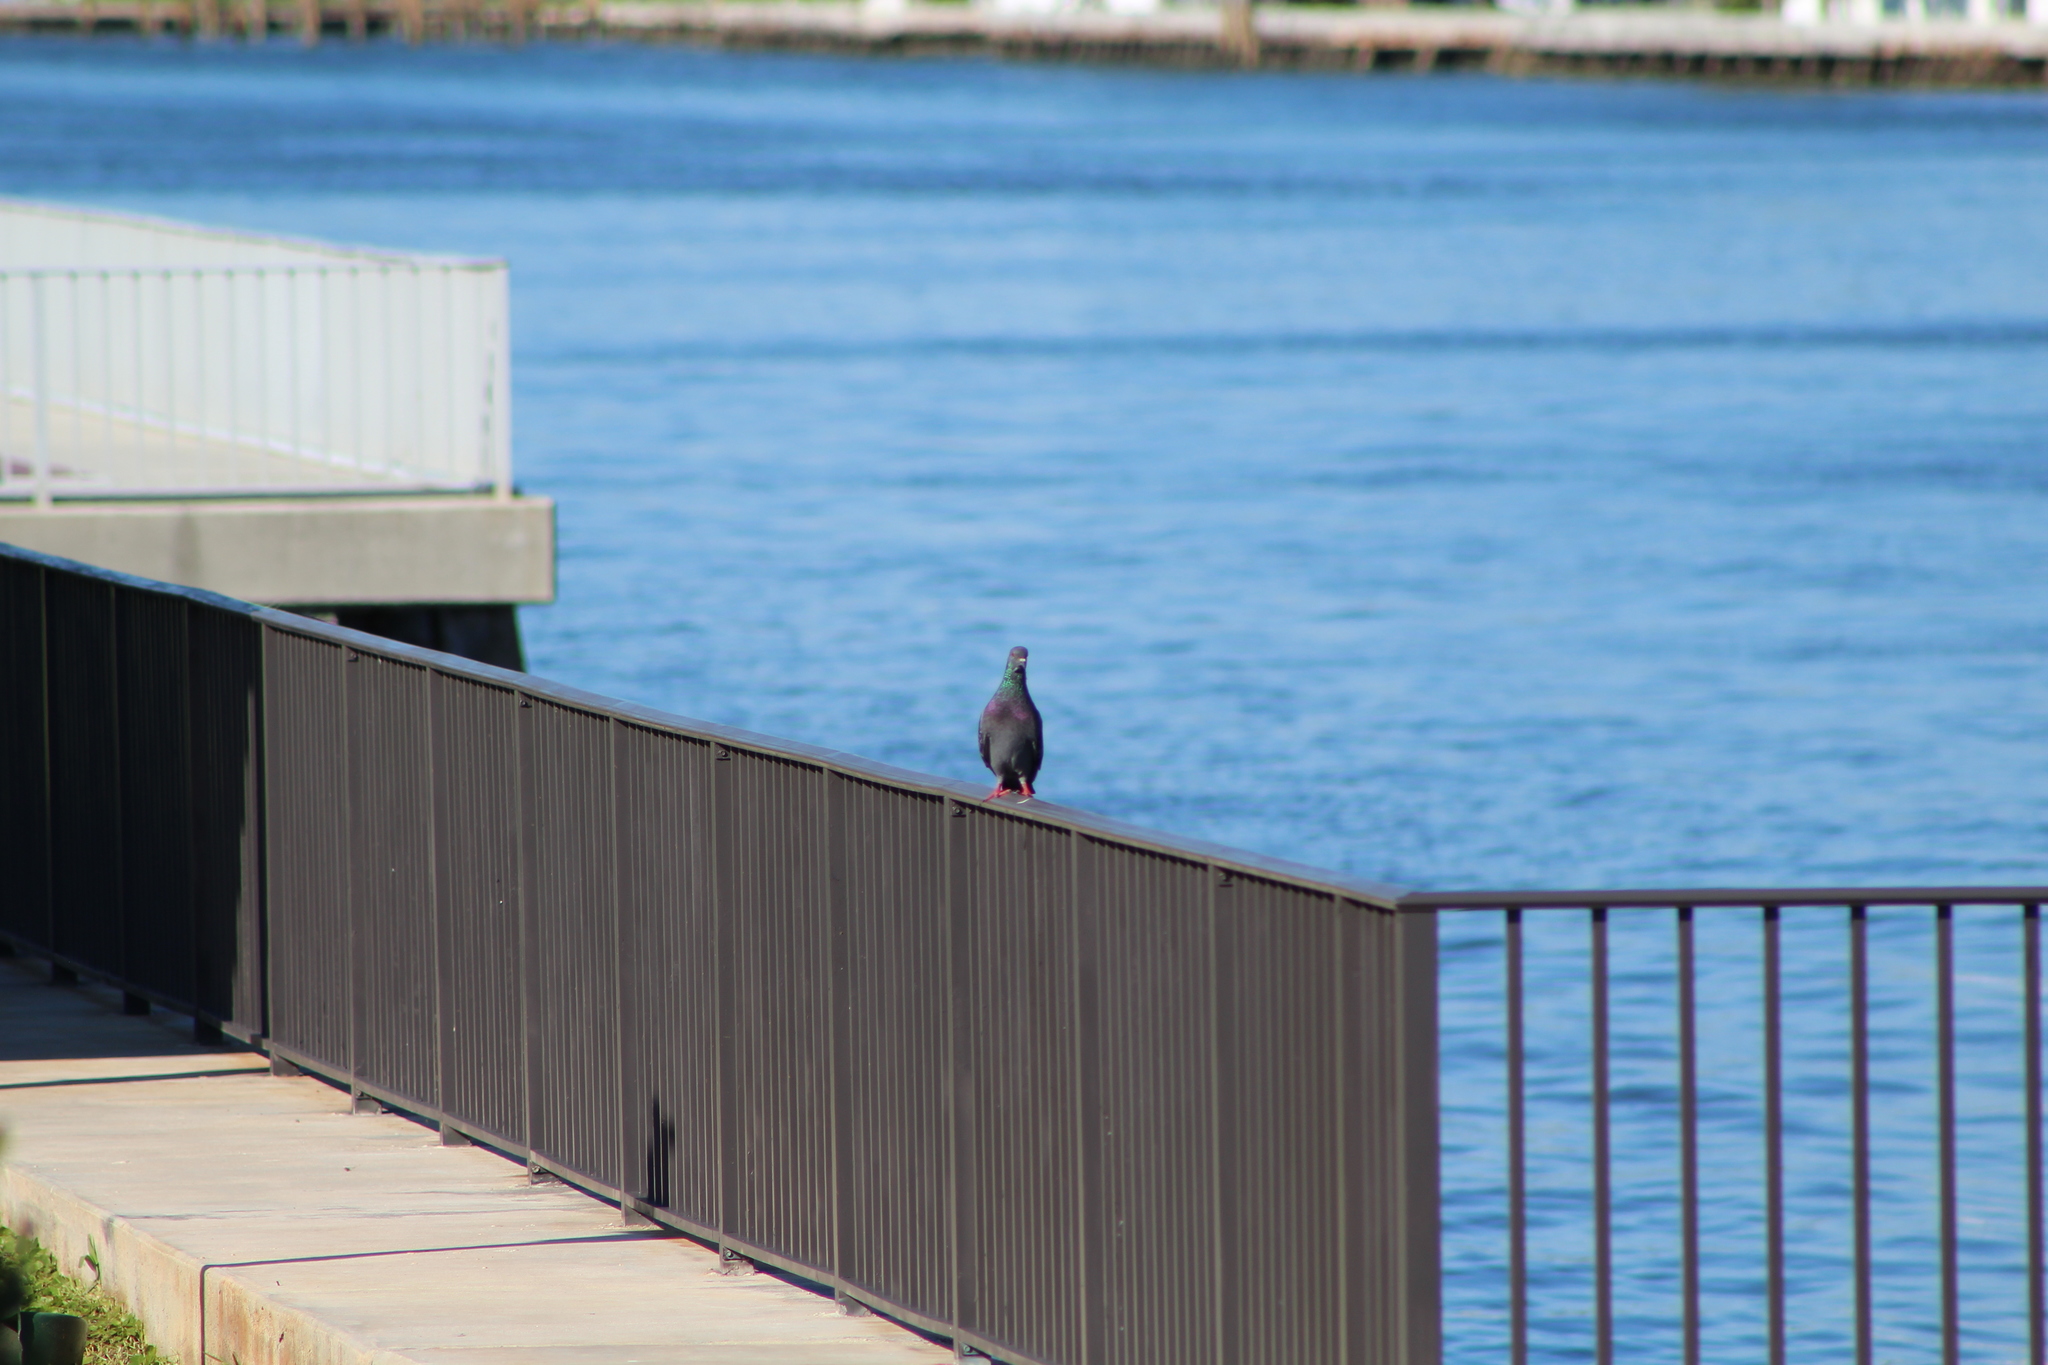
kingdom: Animalia
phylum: Chordata
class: Aves
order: Columbiformes
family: Columbidae
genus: Columba
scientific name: Columba livia
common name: Rock pigeon
